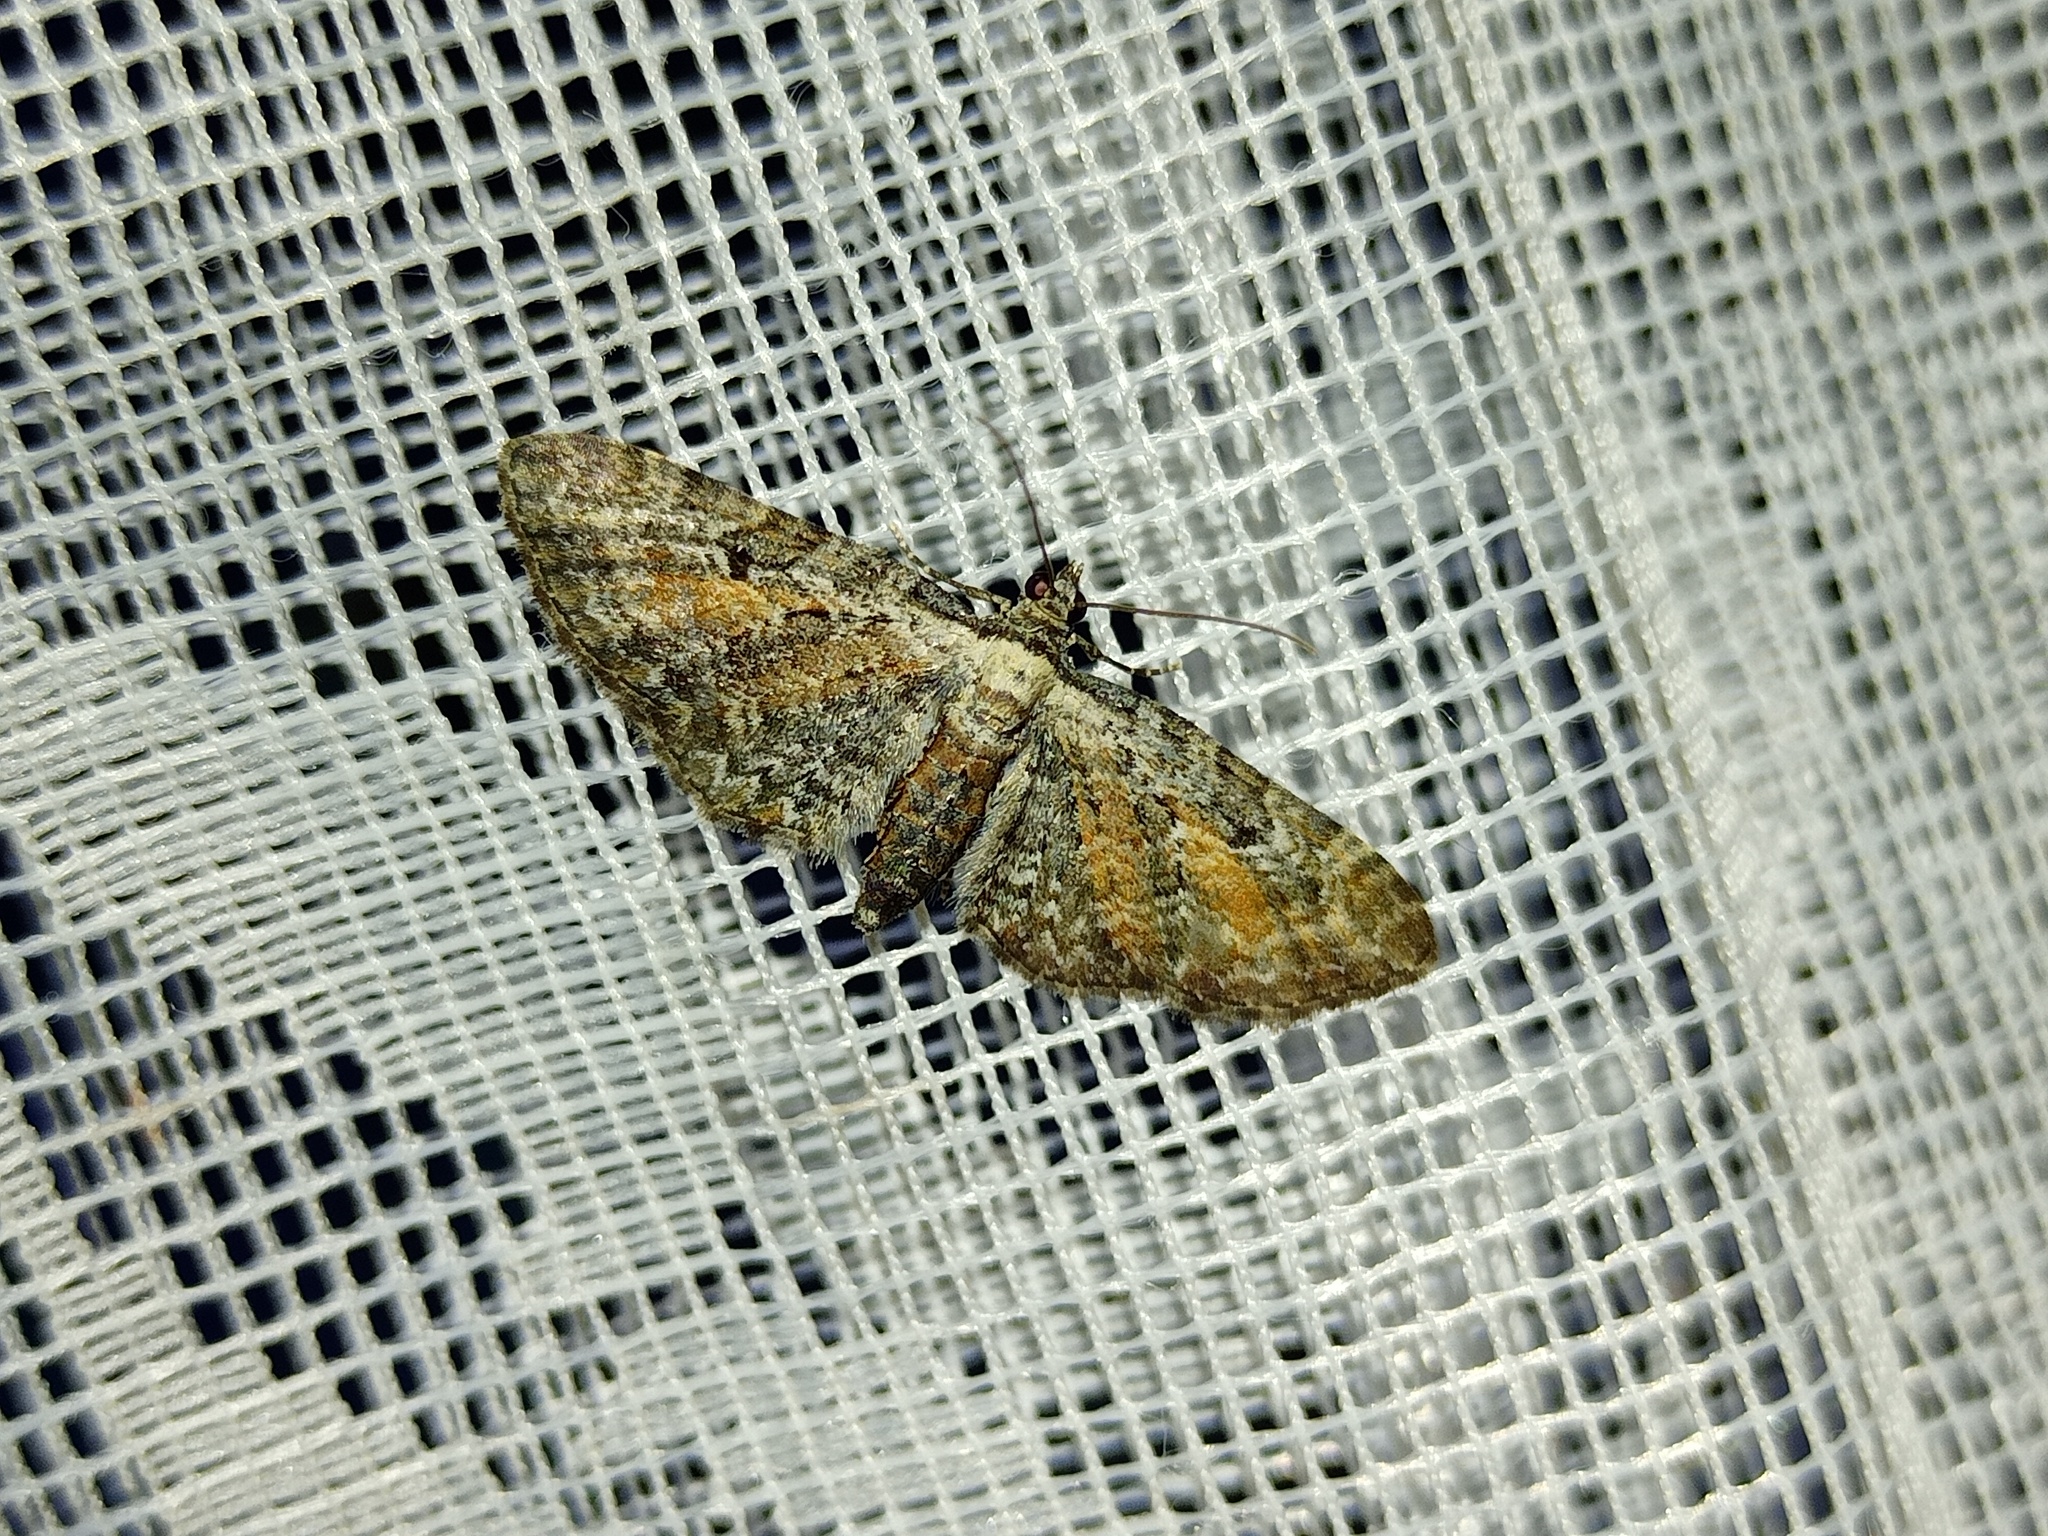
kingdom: Animalia
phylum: Arthropoda
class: Insecta
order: Lepidoptera
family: Geometridae
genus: Eupithecia
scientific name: Eupithecia icterata
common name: Tawny speckled pug
